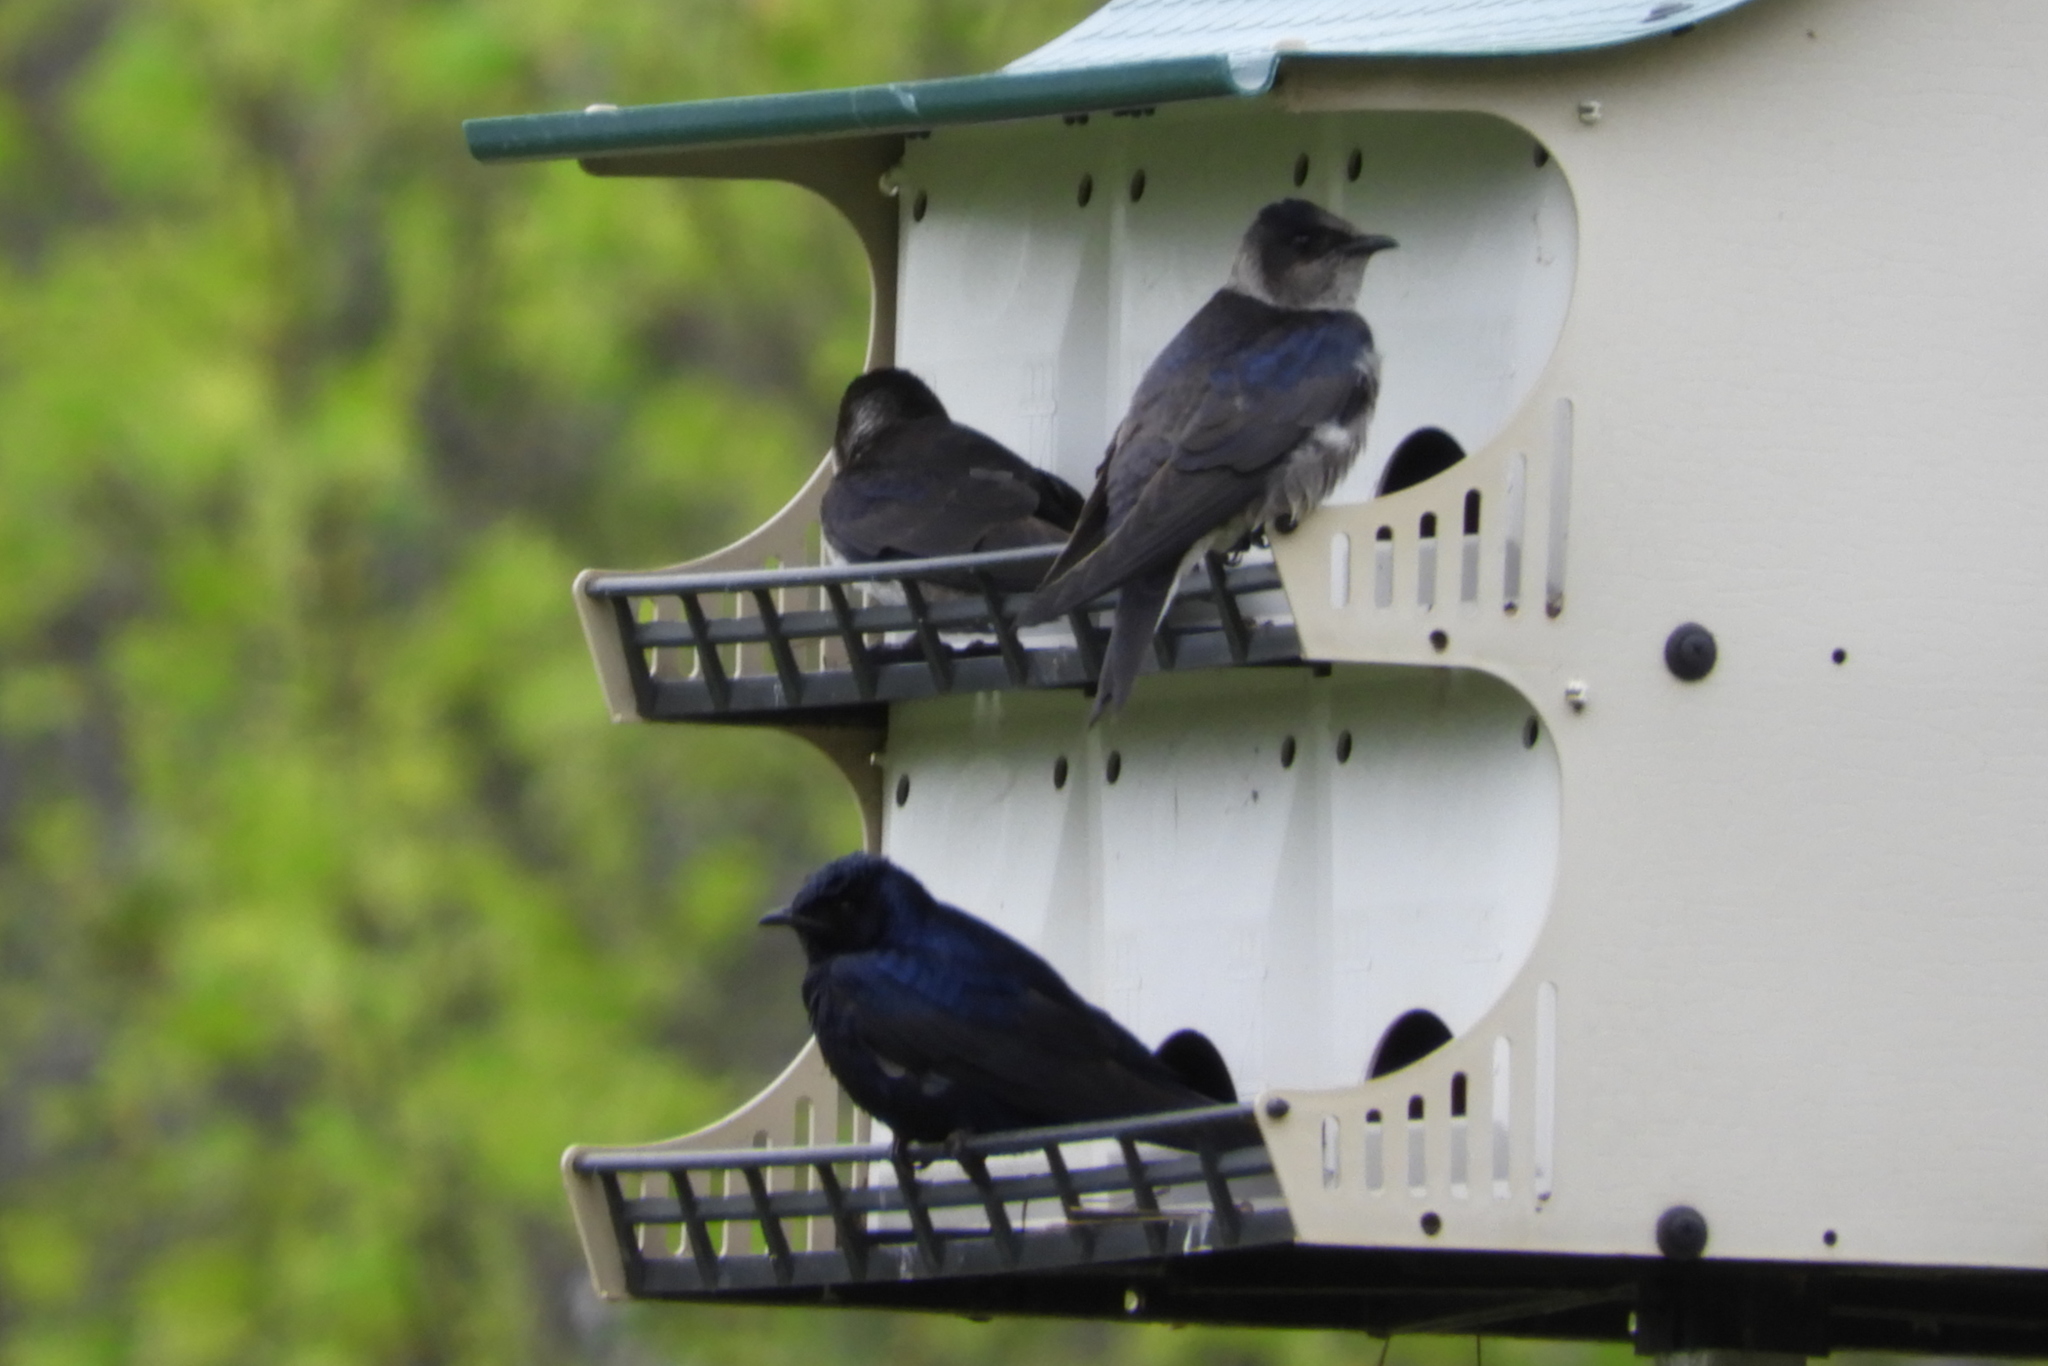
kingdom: Animalia
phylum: Chordata
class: Aves
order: Passeriformes
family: Hirundinidae
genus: Progne
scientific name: Progne subis
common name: Purple martin
